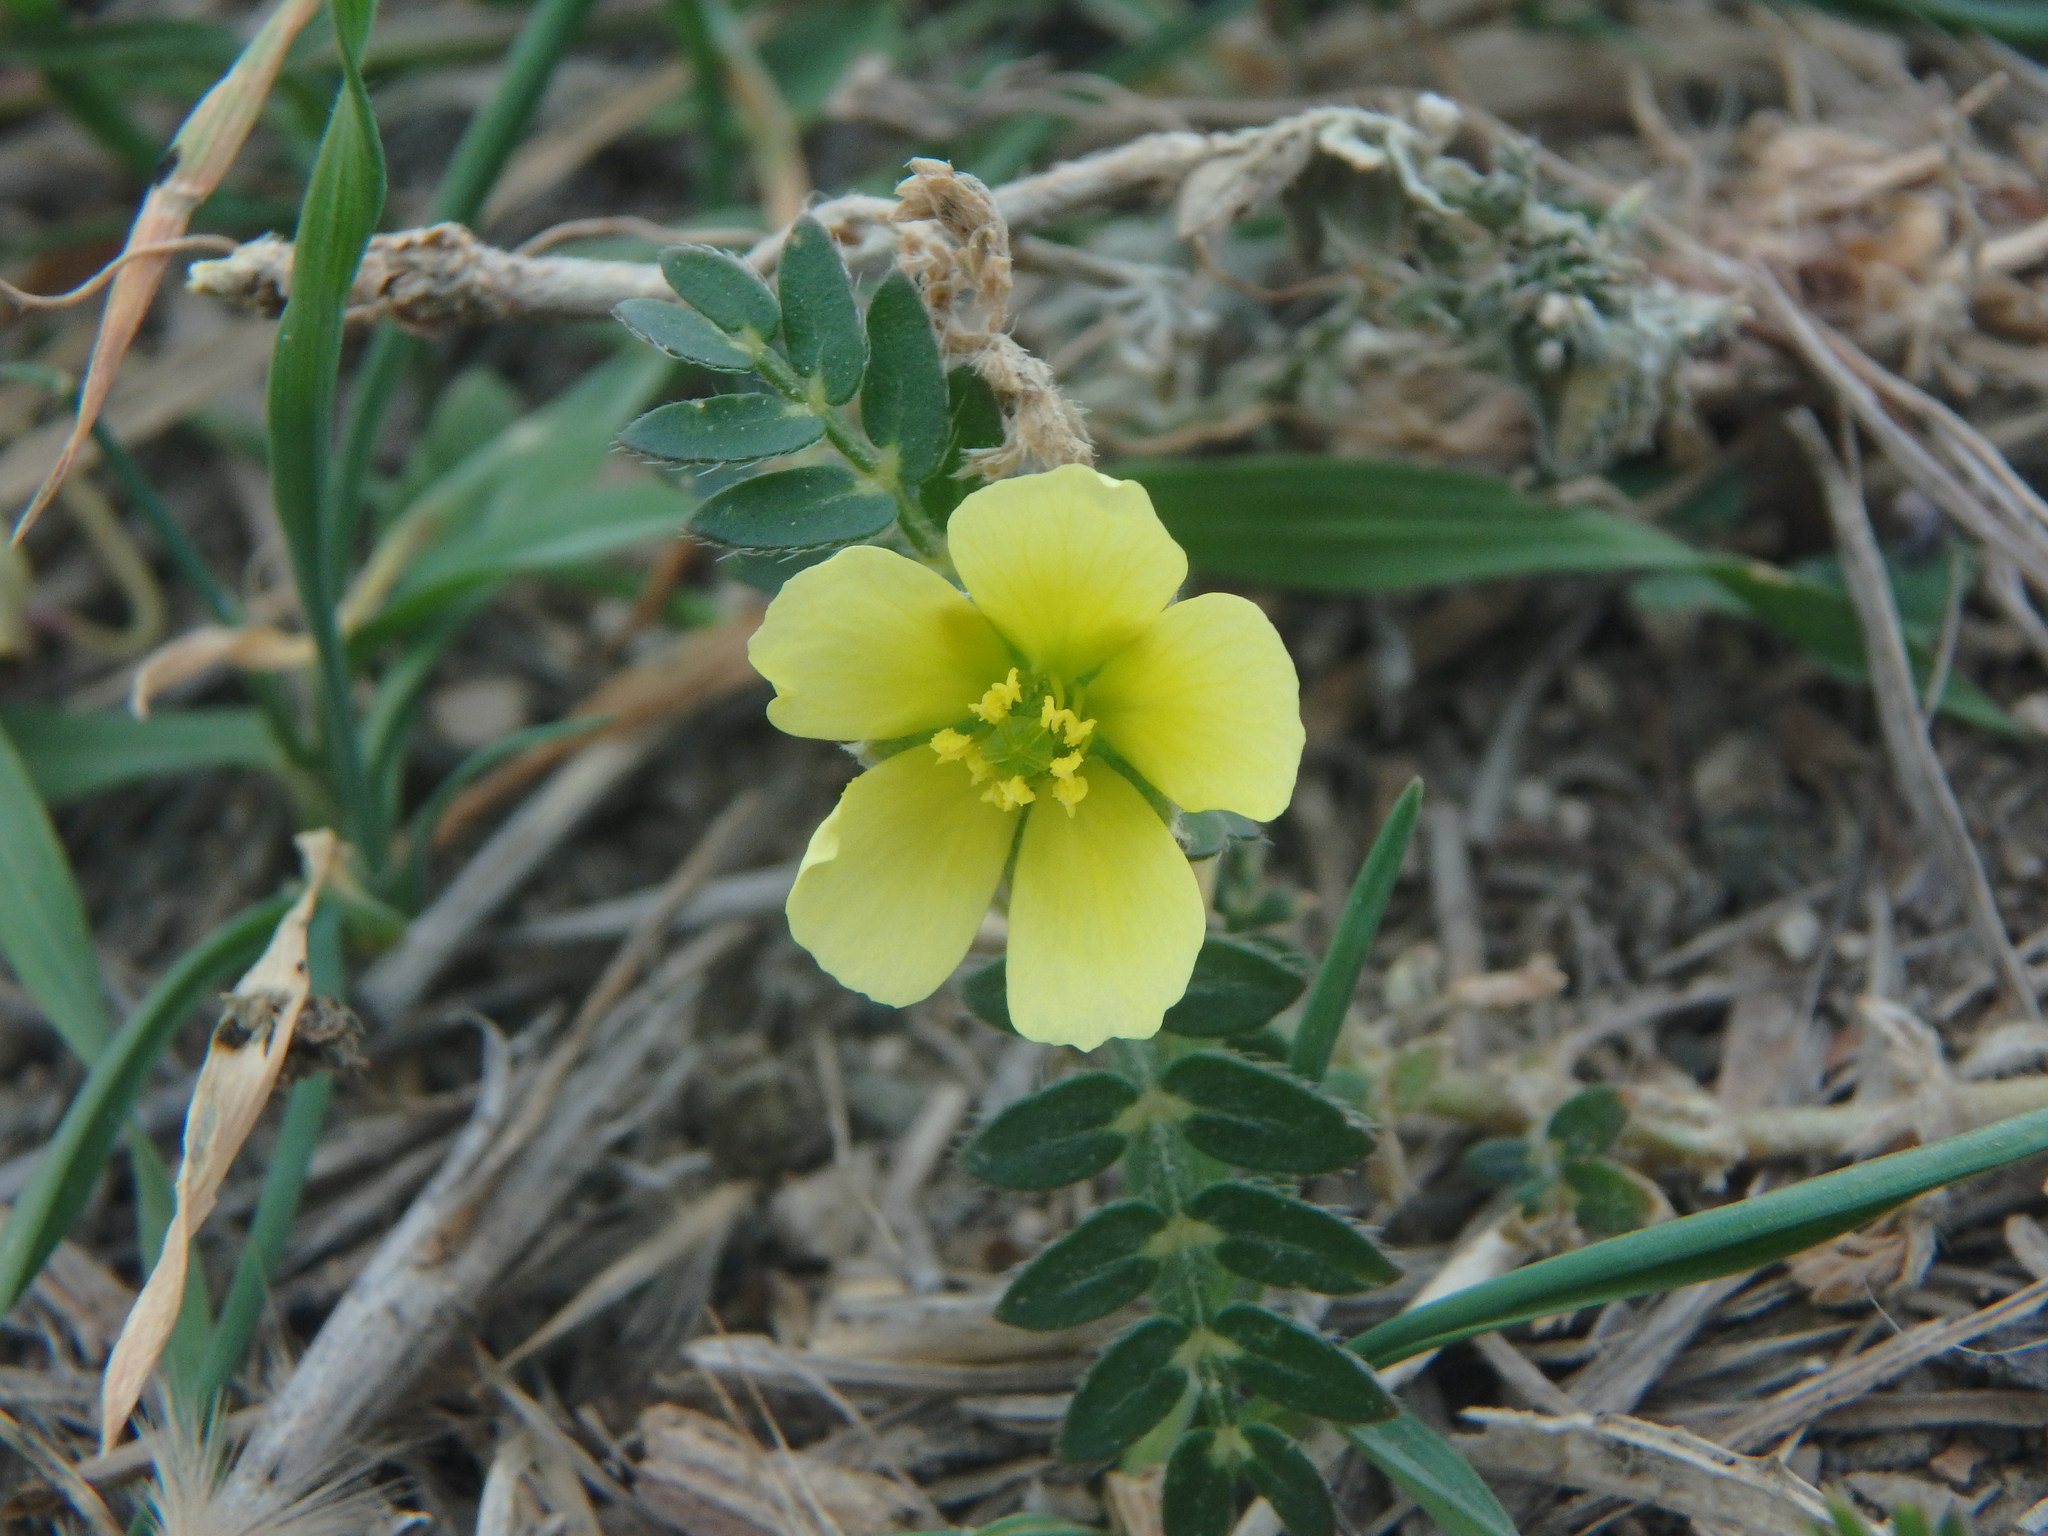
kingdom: Plantae
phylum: Tracheophyta
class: Magnoliopsida
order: Zygophyllales
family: Zygophyllaceae
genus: Tribulus
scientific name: Tribulus terrestris
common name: Puncturevine
